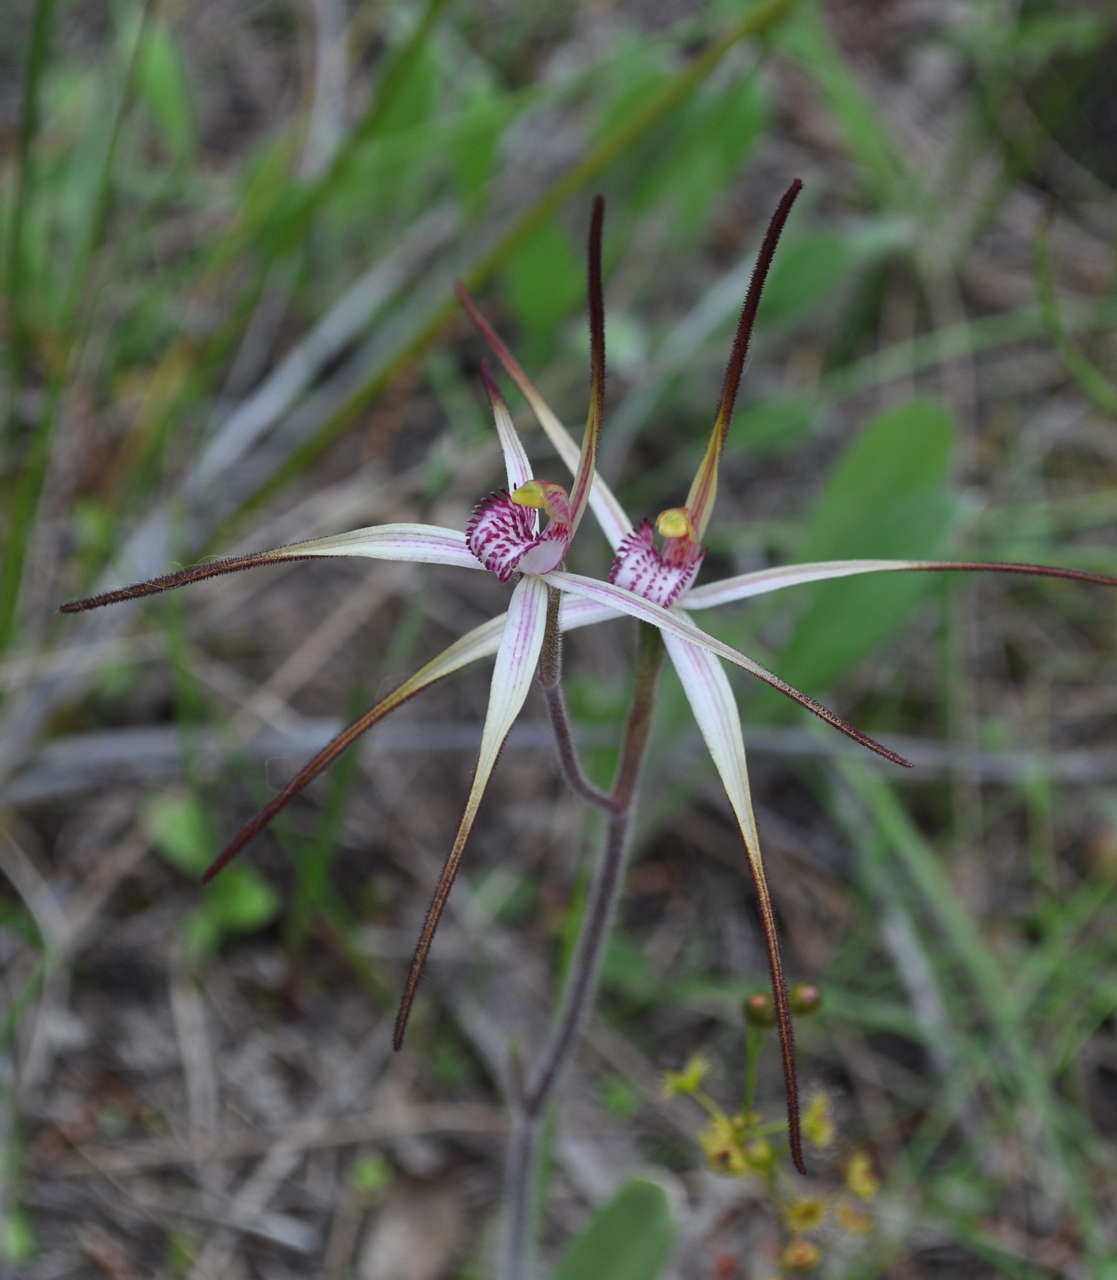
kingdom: Plantae
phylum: Tracheophyta
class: Liliopsida
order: Asparagales
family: Orchidaceae
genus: Caladenia
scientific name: Caladenia versicolor
